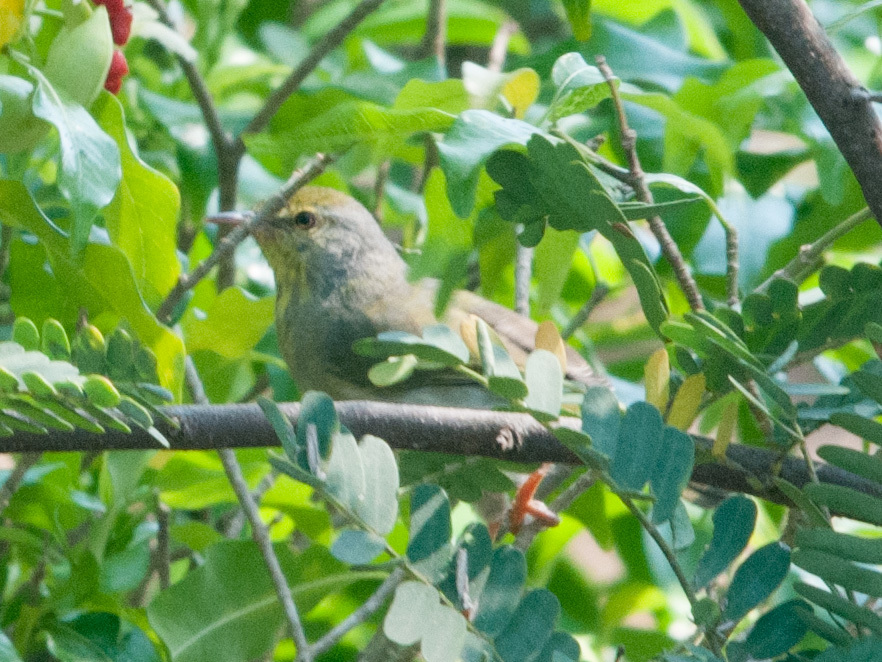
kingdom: Animalia
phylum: Chordata
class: Aves
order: Passeriformes
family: Cisticolidae
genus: Neomixis
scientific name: Neomixis tenella
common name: Common jery
